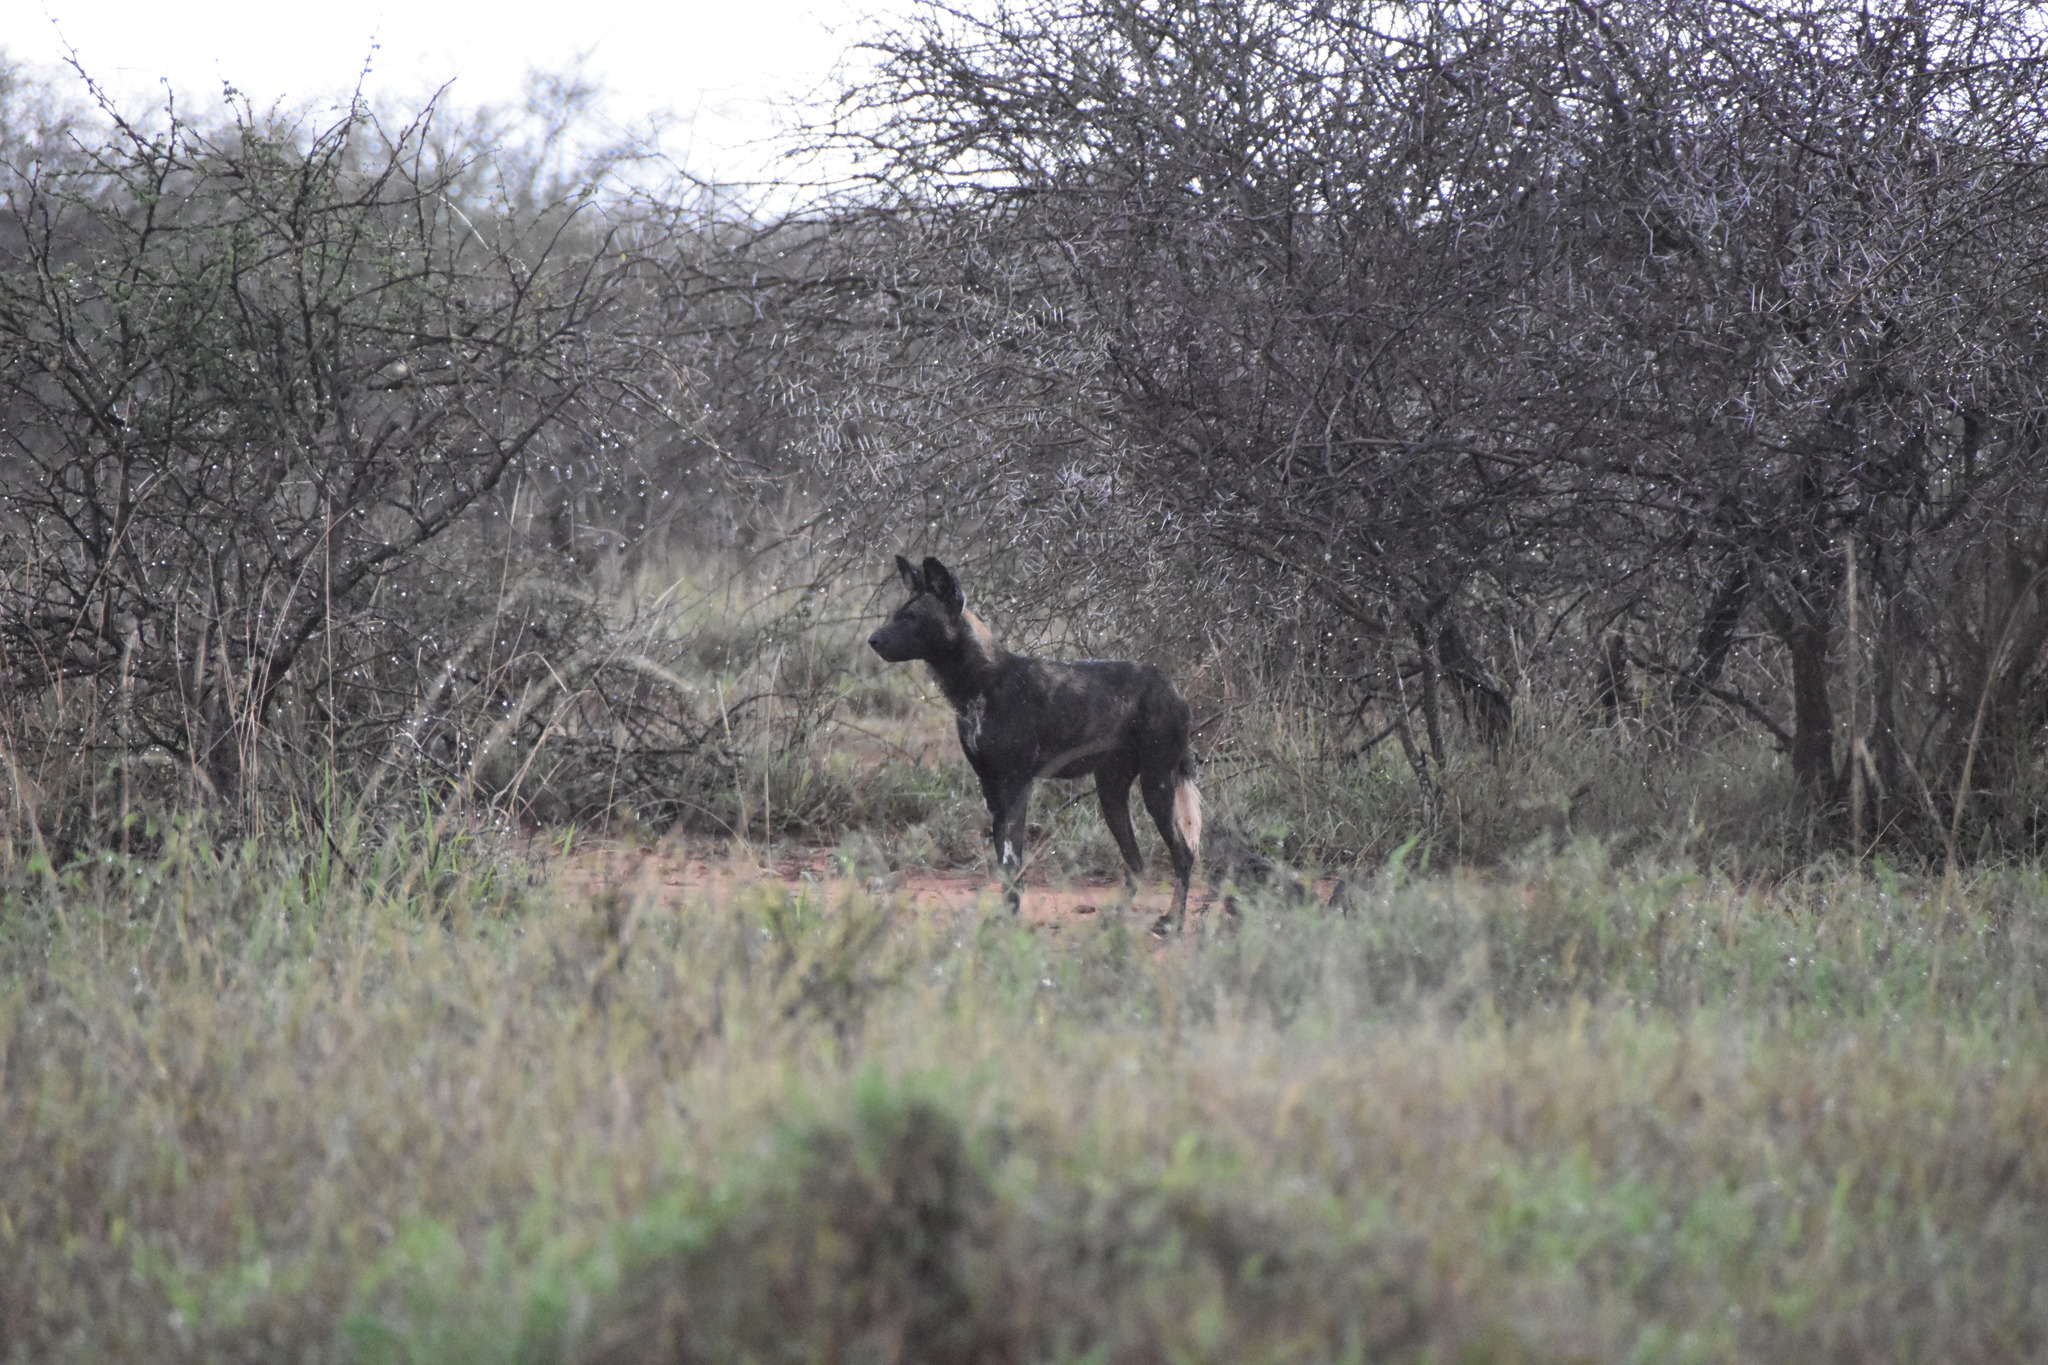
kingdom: Animalia
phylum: Chordata
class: Mammalia
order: Carnivora
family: Canidae
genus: Lycaon
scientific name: Lycaon pictus
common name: African wild dog
